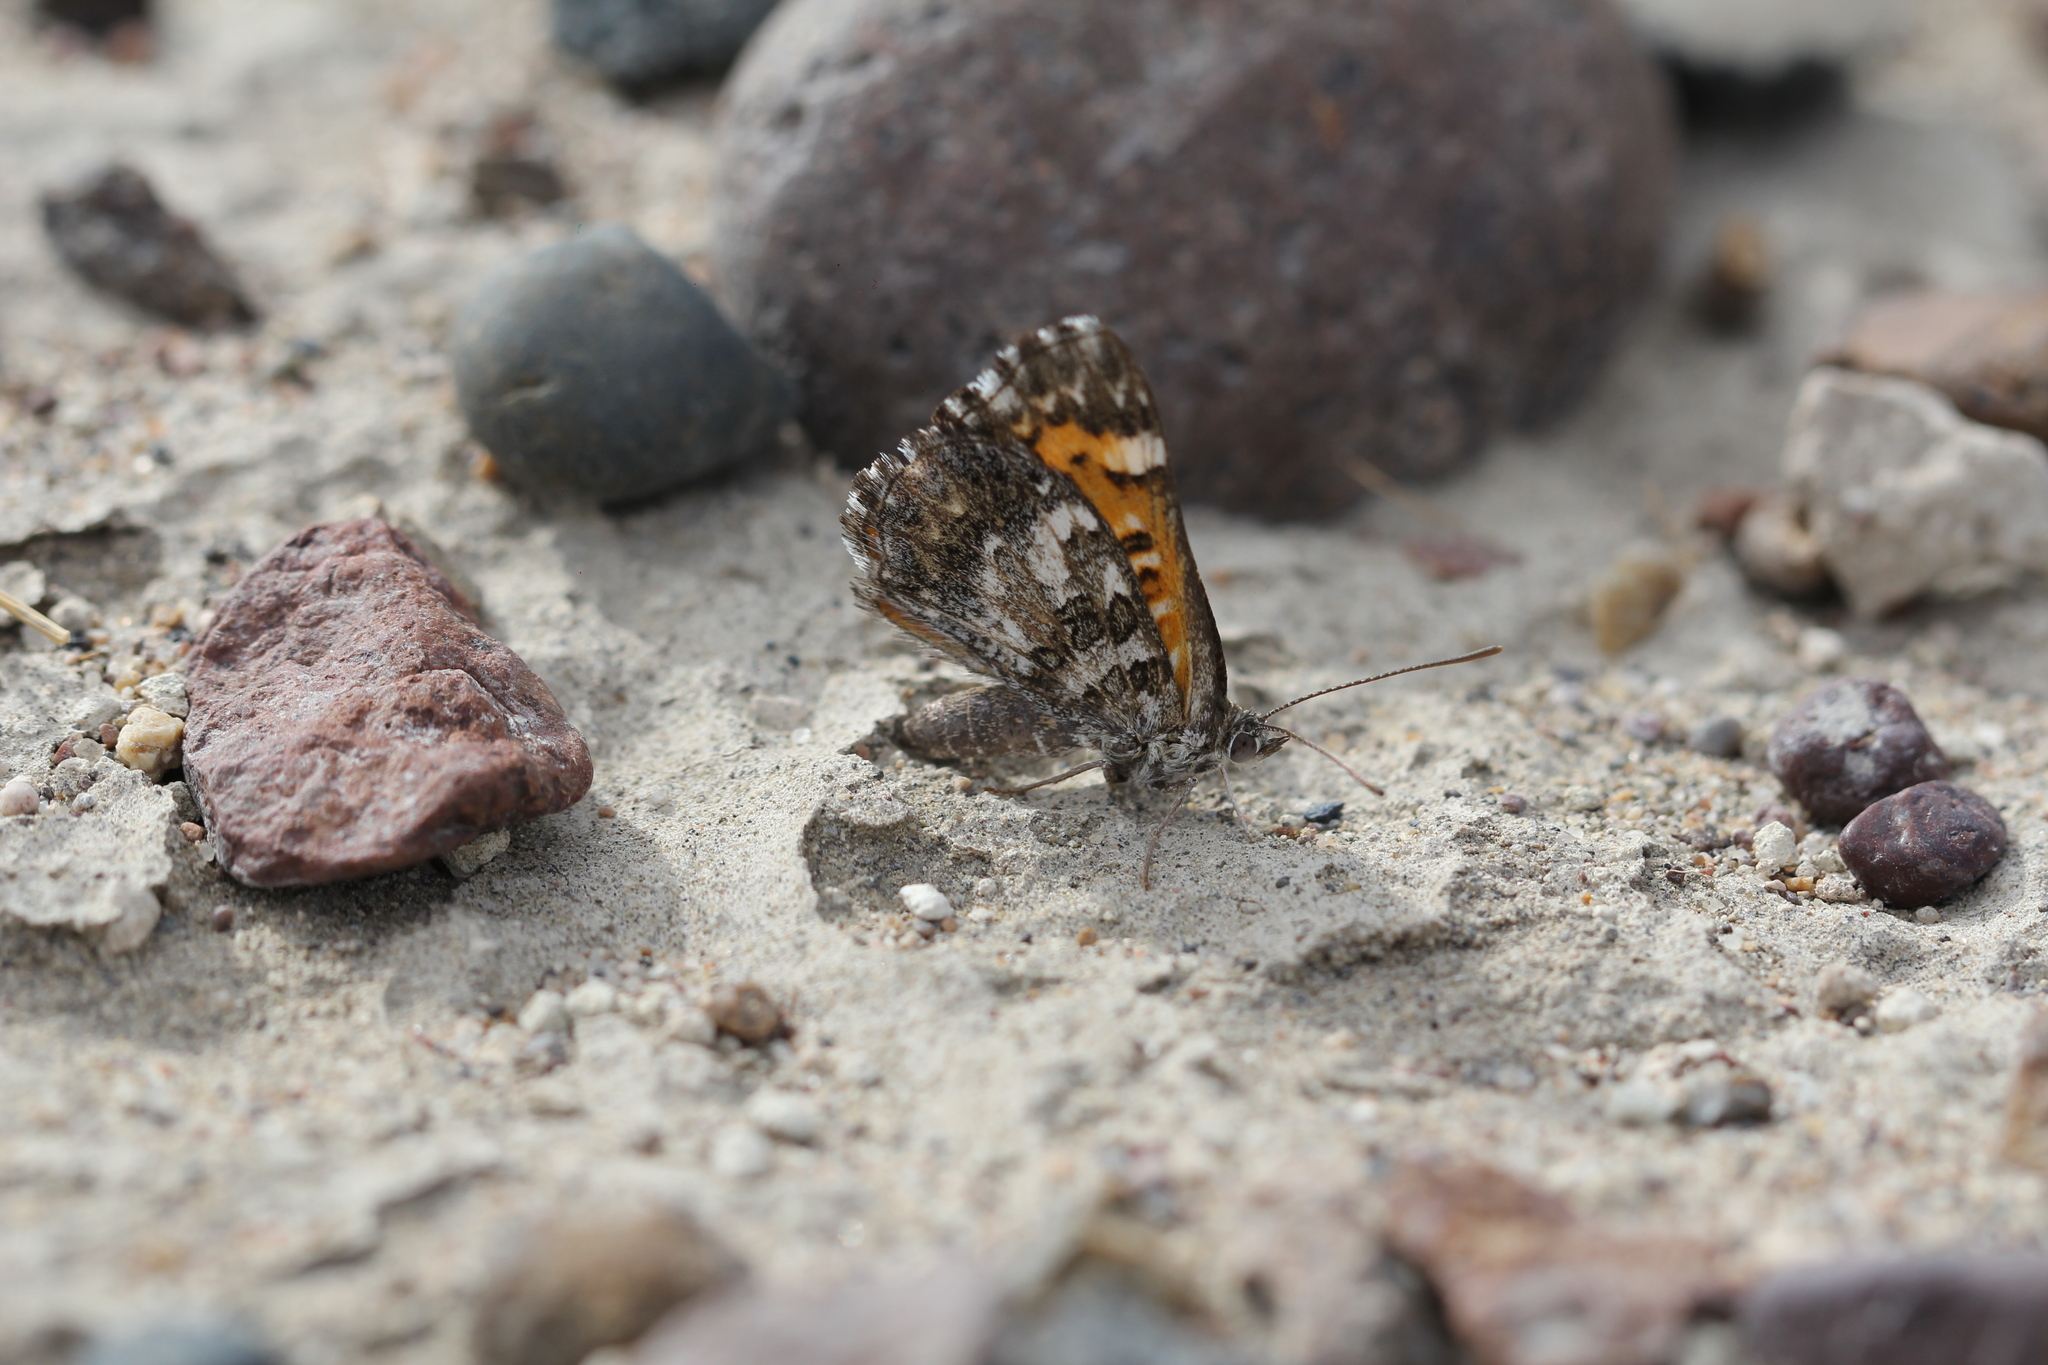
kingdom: Animalia
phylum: Arthropoda
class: Insecta
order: Lepidoptera
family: Lycaenidae
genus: Aricoris
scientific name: Aricoris chilensis
